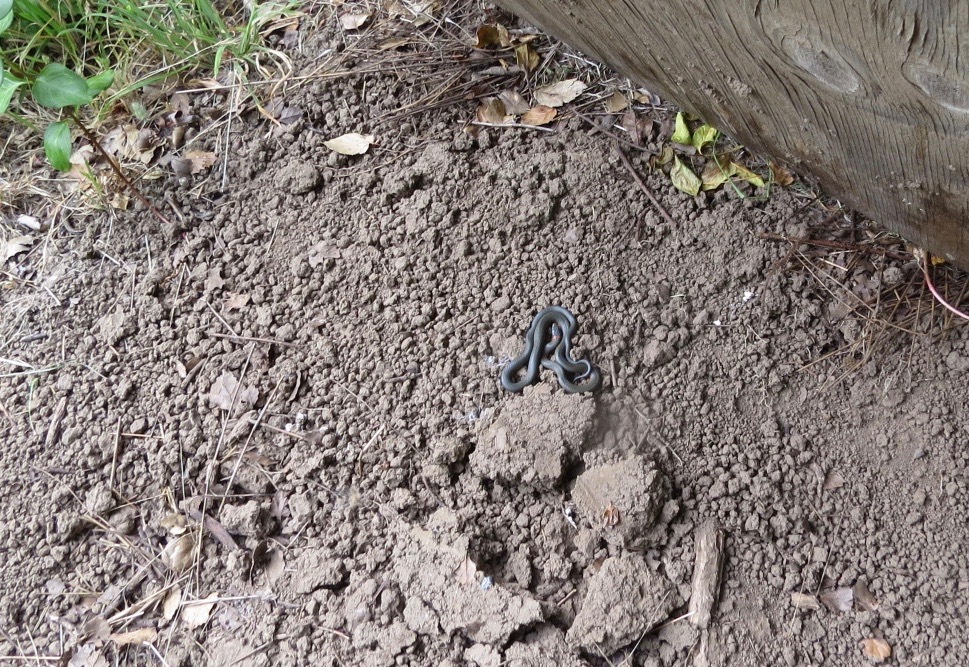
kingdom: Animalia
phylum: Chordata
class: Squamata
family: Colubridae
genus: Diadophis
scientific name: Diadophis punctatus
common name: Ringneck snake
